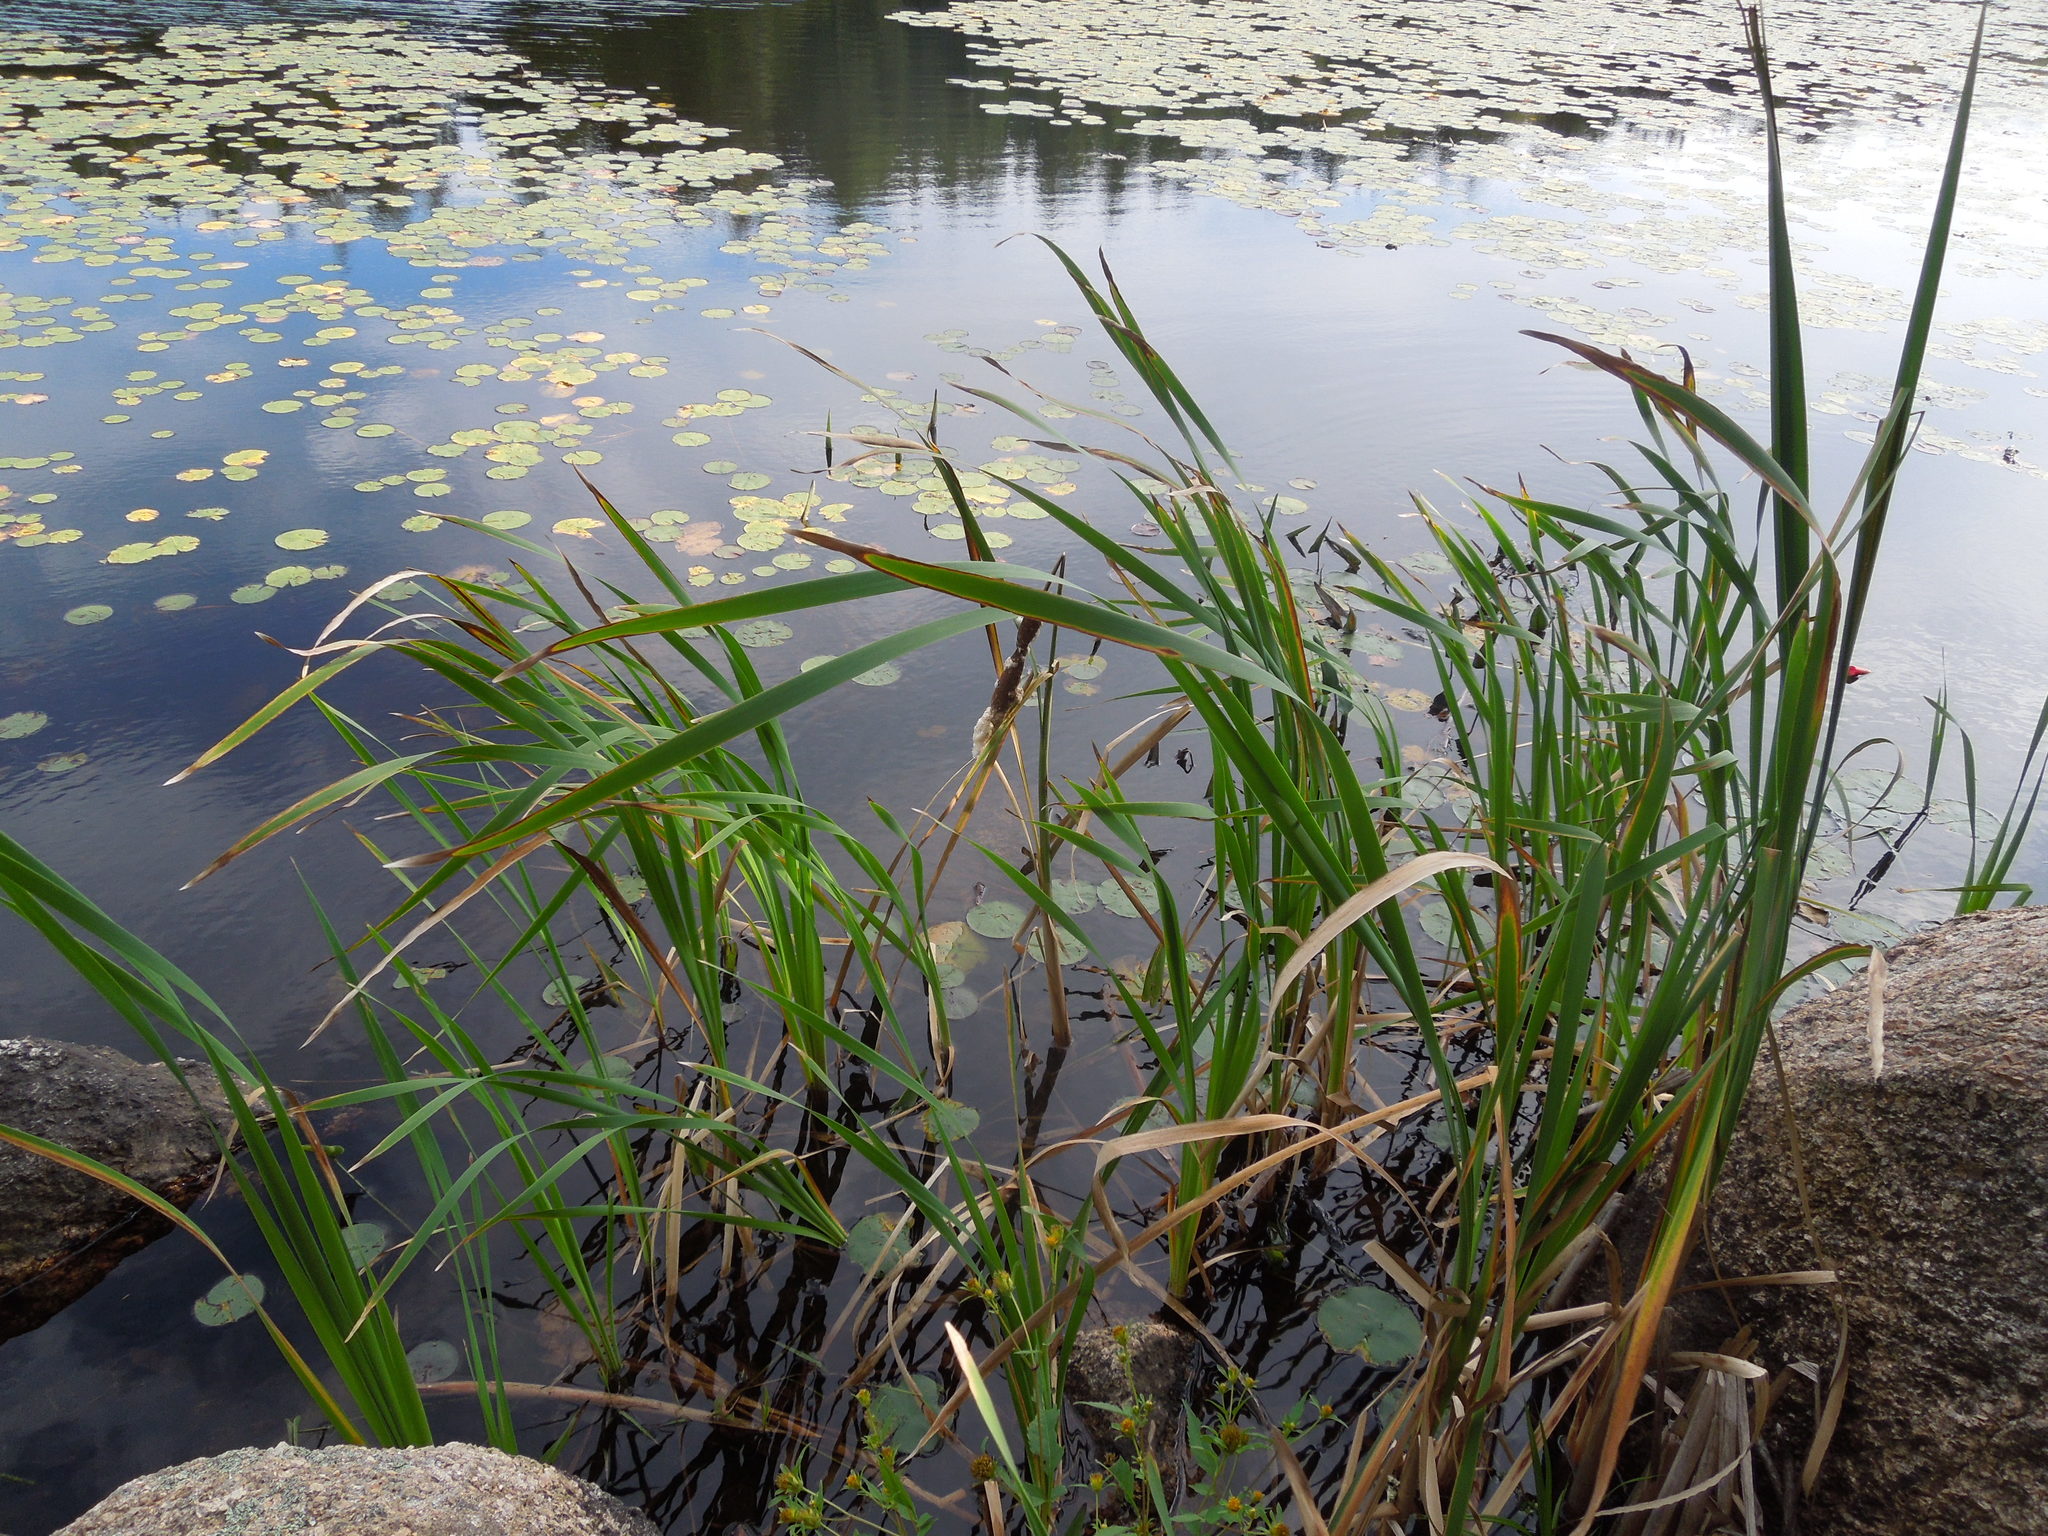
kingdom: Plantae
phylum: Tracheophyta
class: Liliopsida
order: Poales
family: Typhaceae
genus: Typha
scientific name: Typha latifolia
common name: Broadleaf cattail
